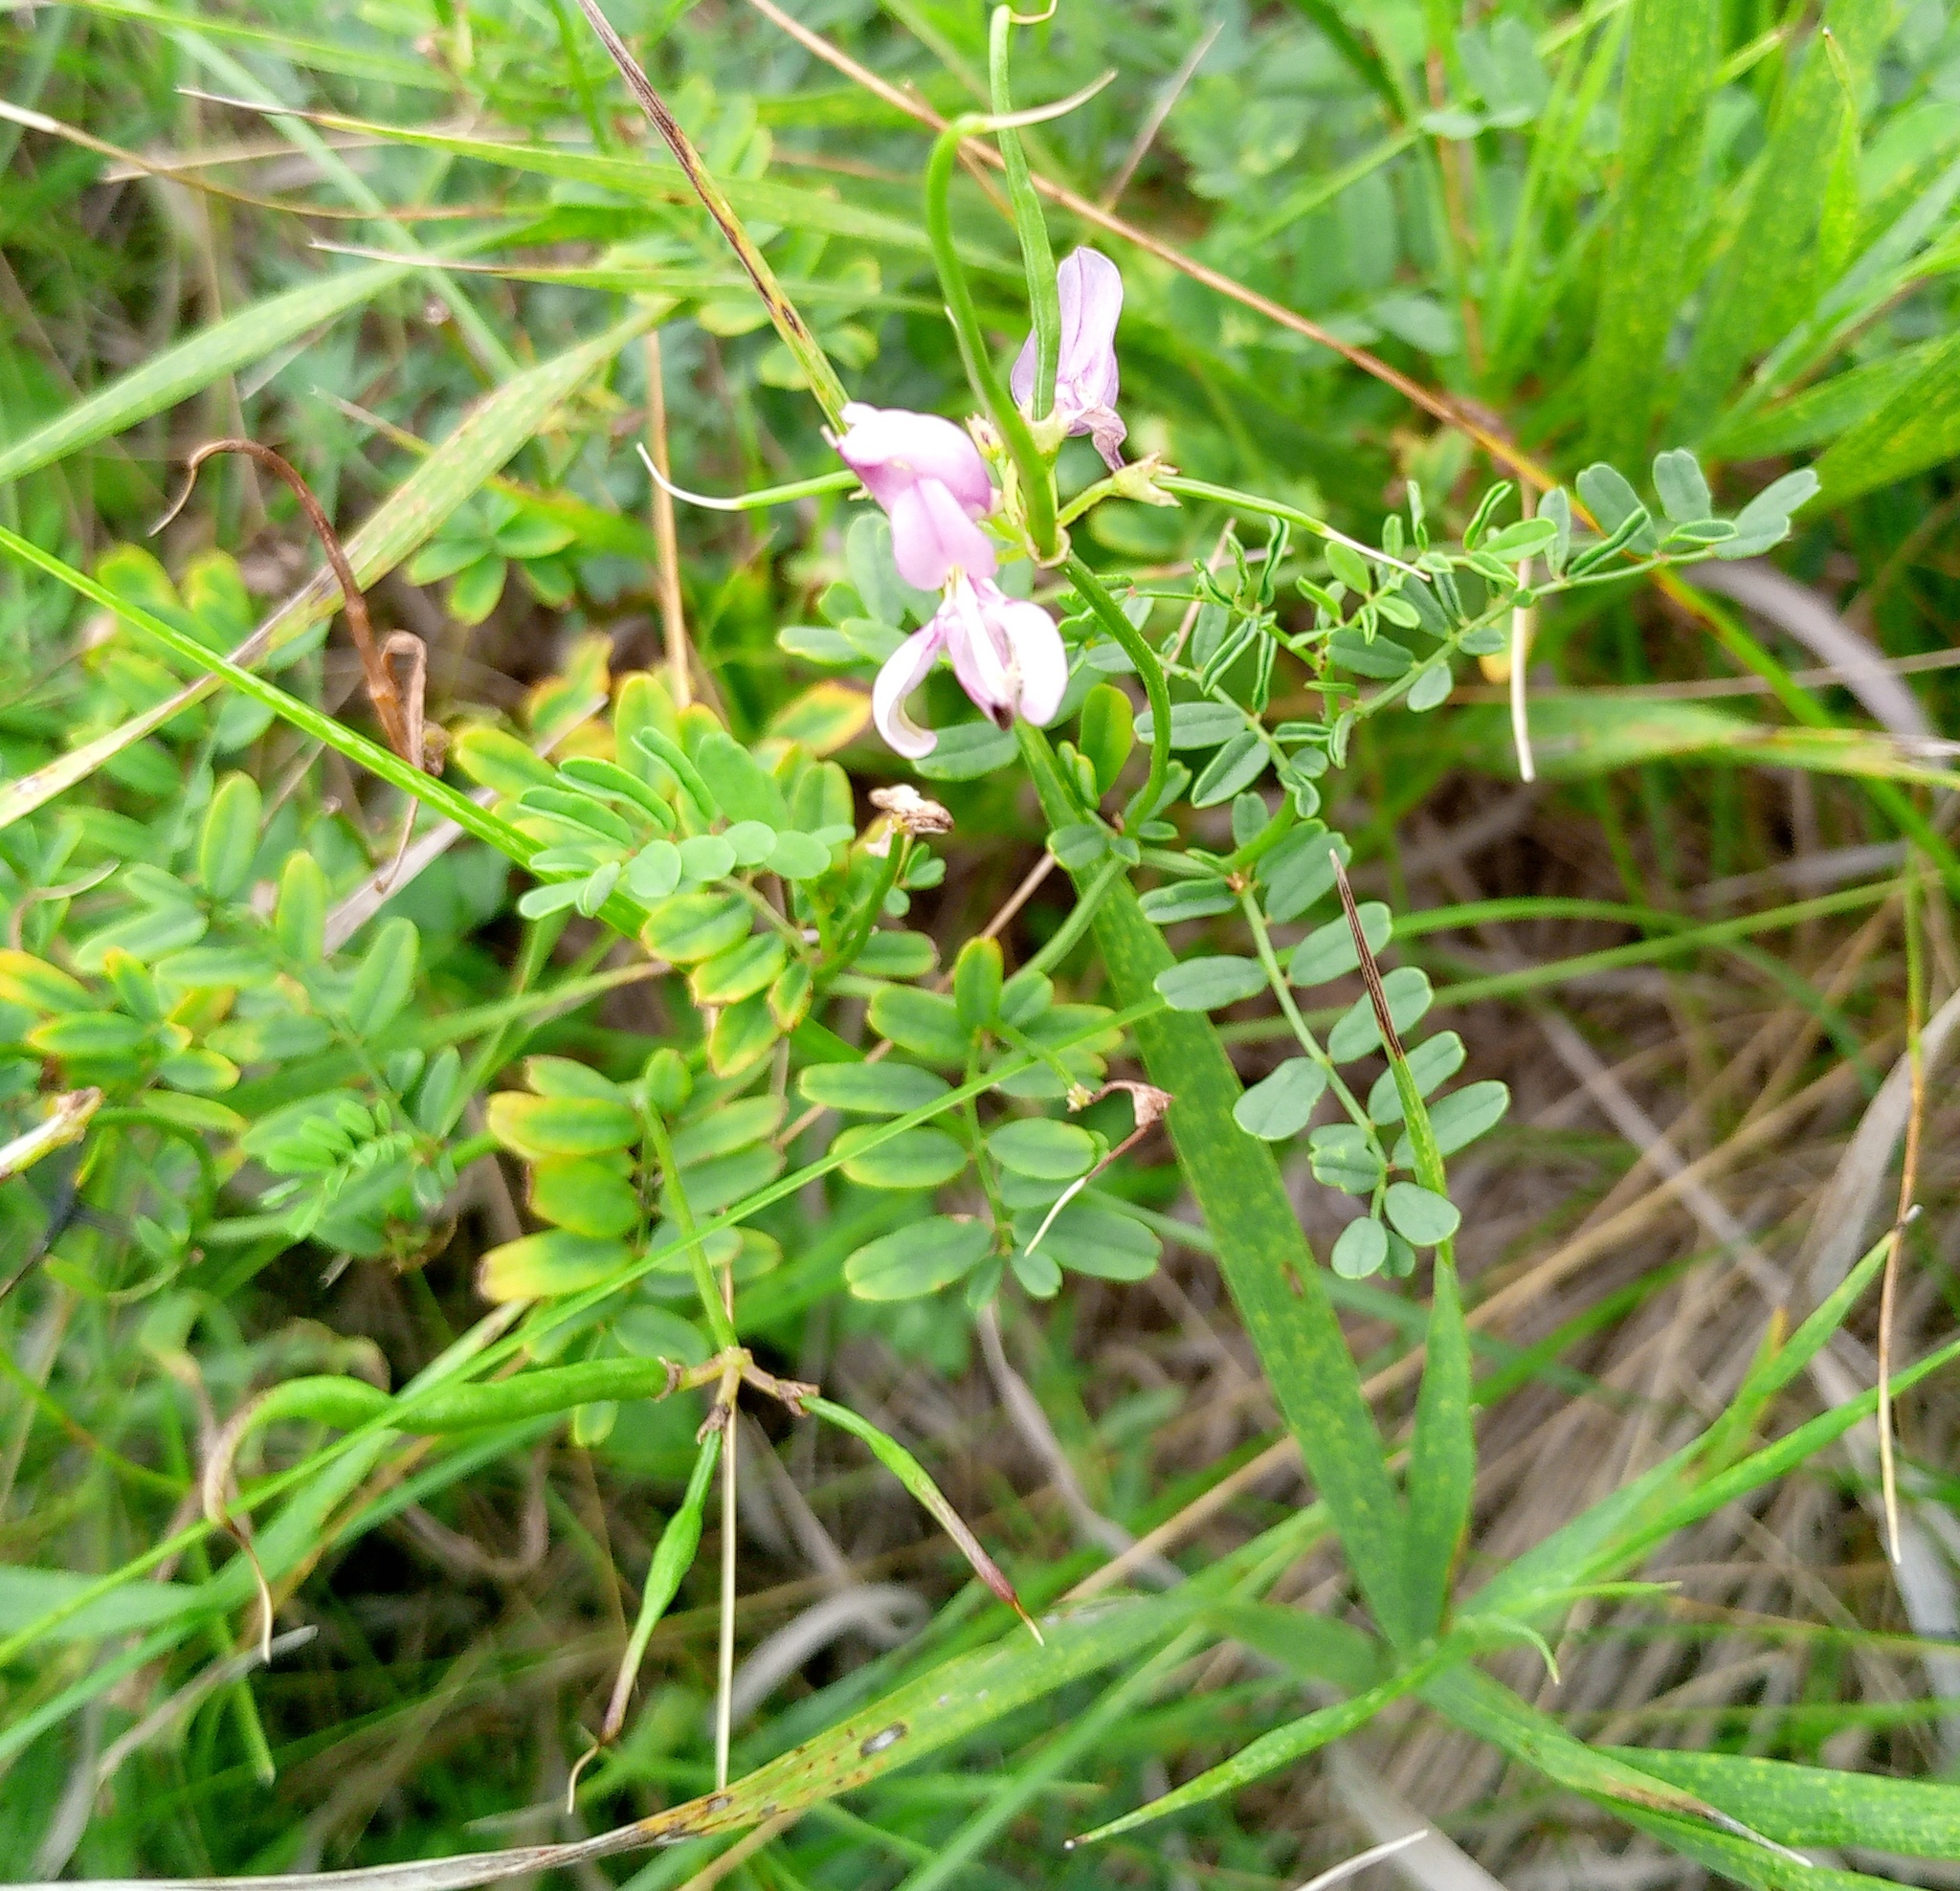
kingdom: Plantae
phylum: Tracheophyta
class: Magnoliopsida
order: Fabales
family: Fabaceae
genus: Coronilla
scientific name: Coronilla varia
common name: Crownvetch
